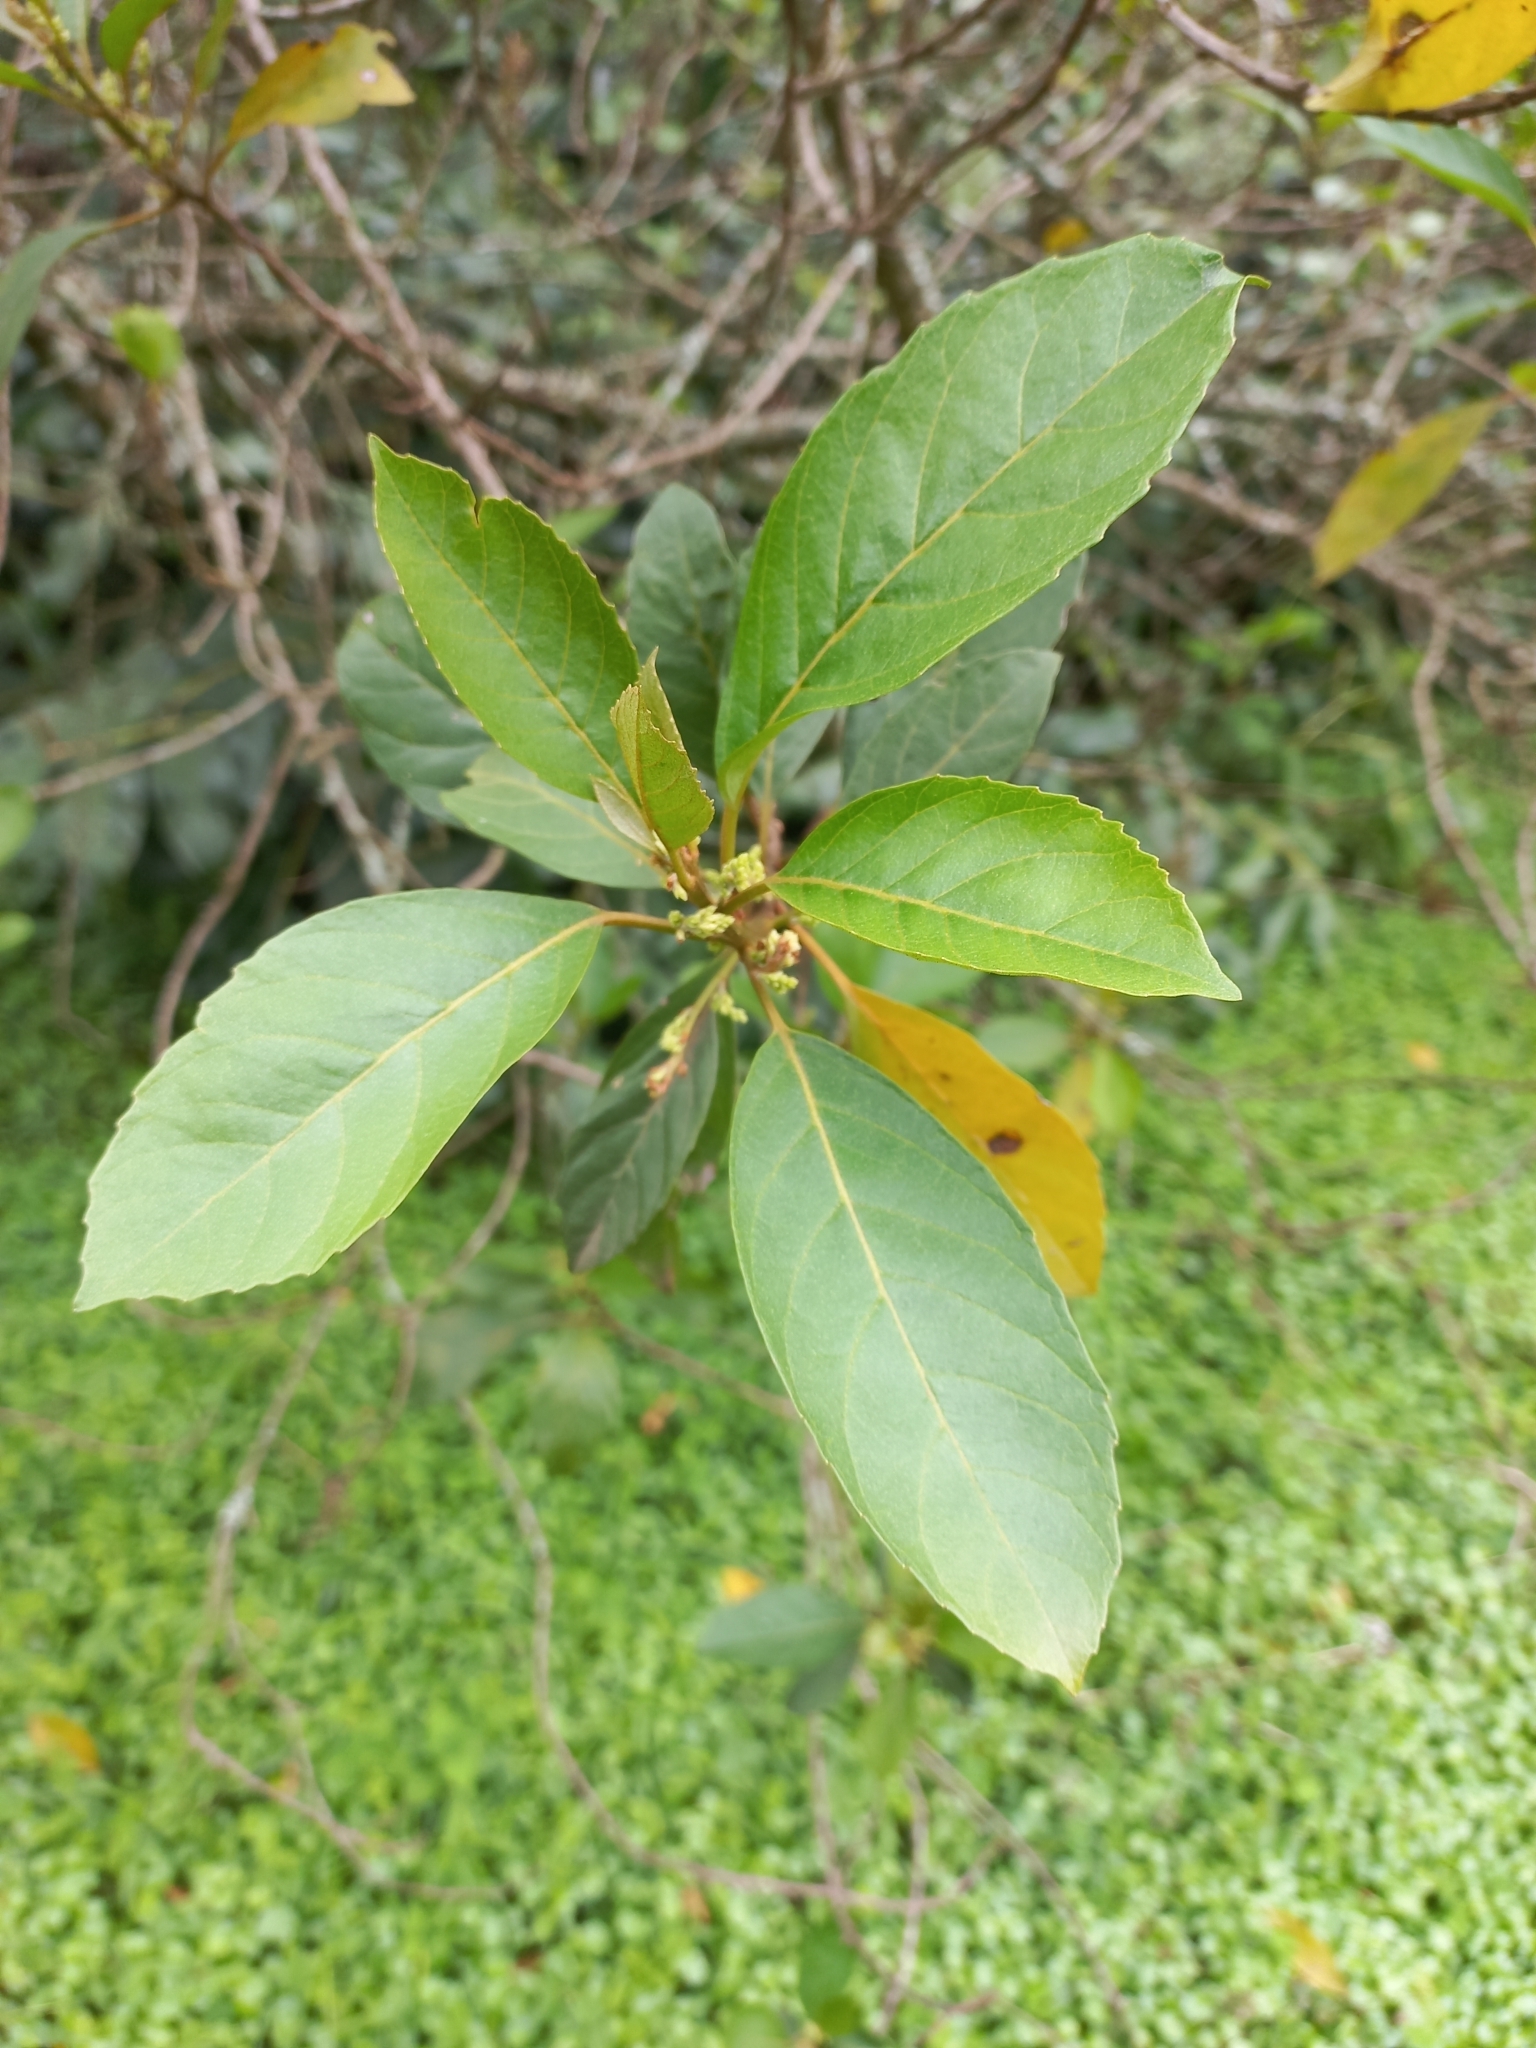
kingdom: Plantae
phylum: Tracheophyta
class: Magnoliopsida
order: Ericales
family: Primulaceae
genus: Maesa
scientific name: Maesa lanceolata
